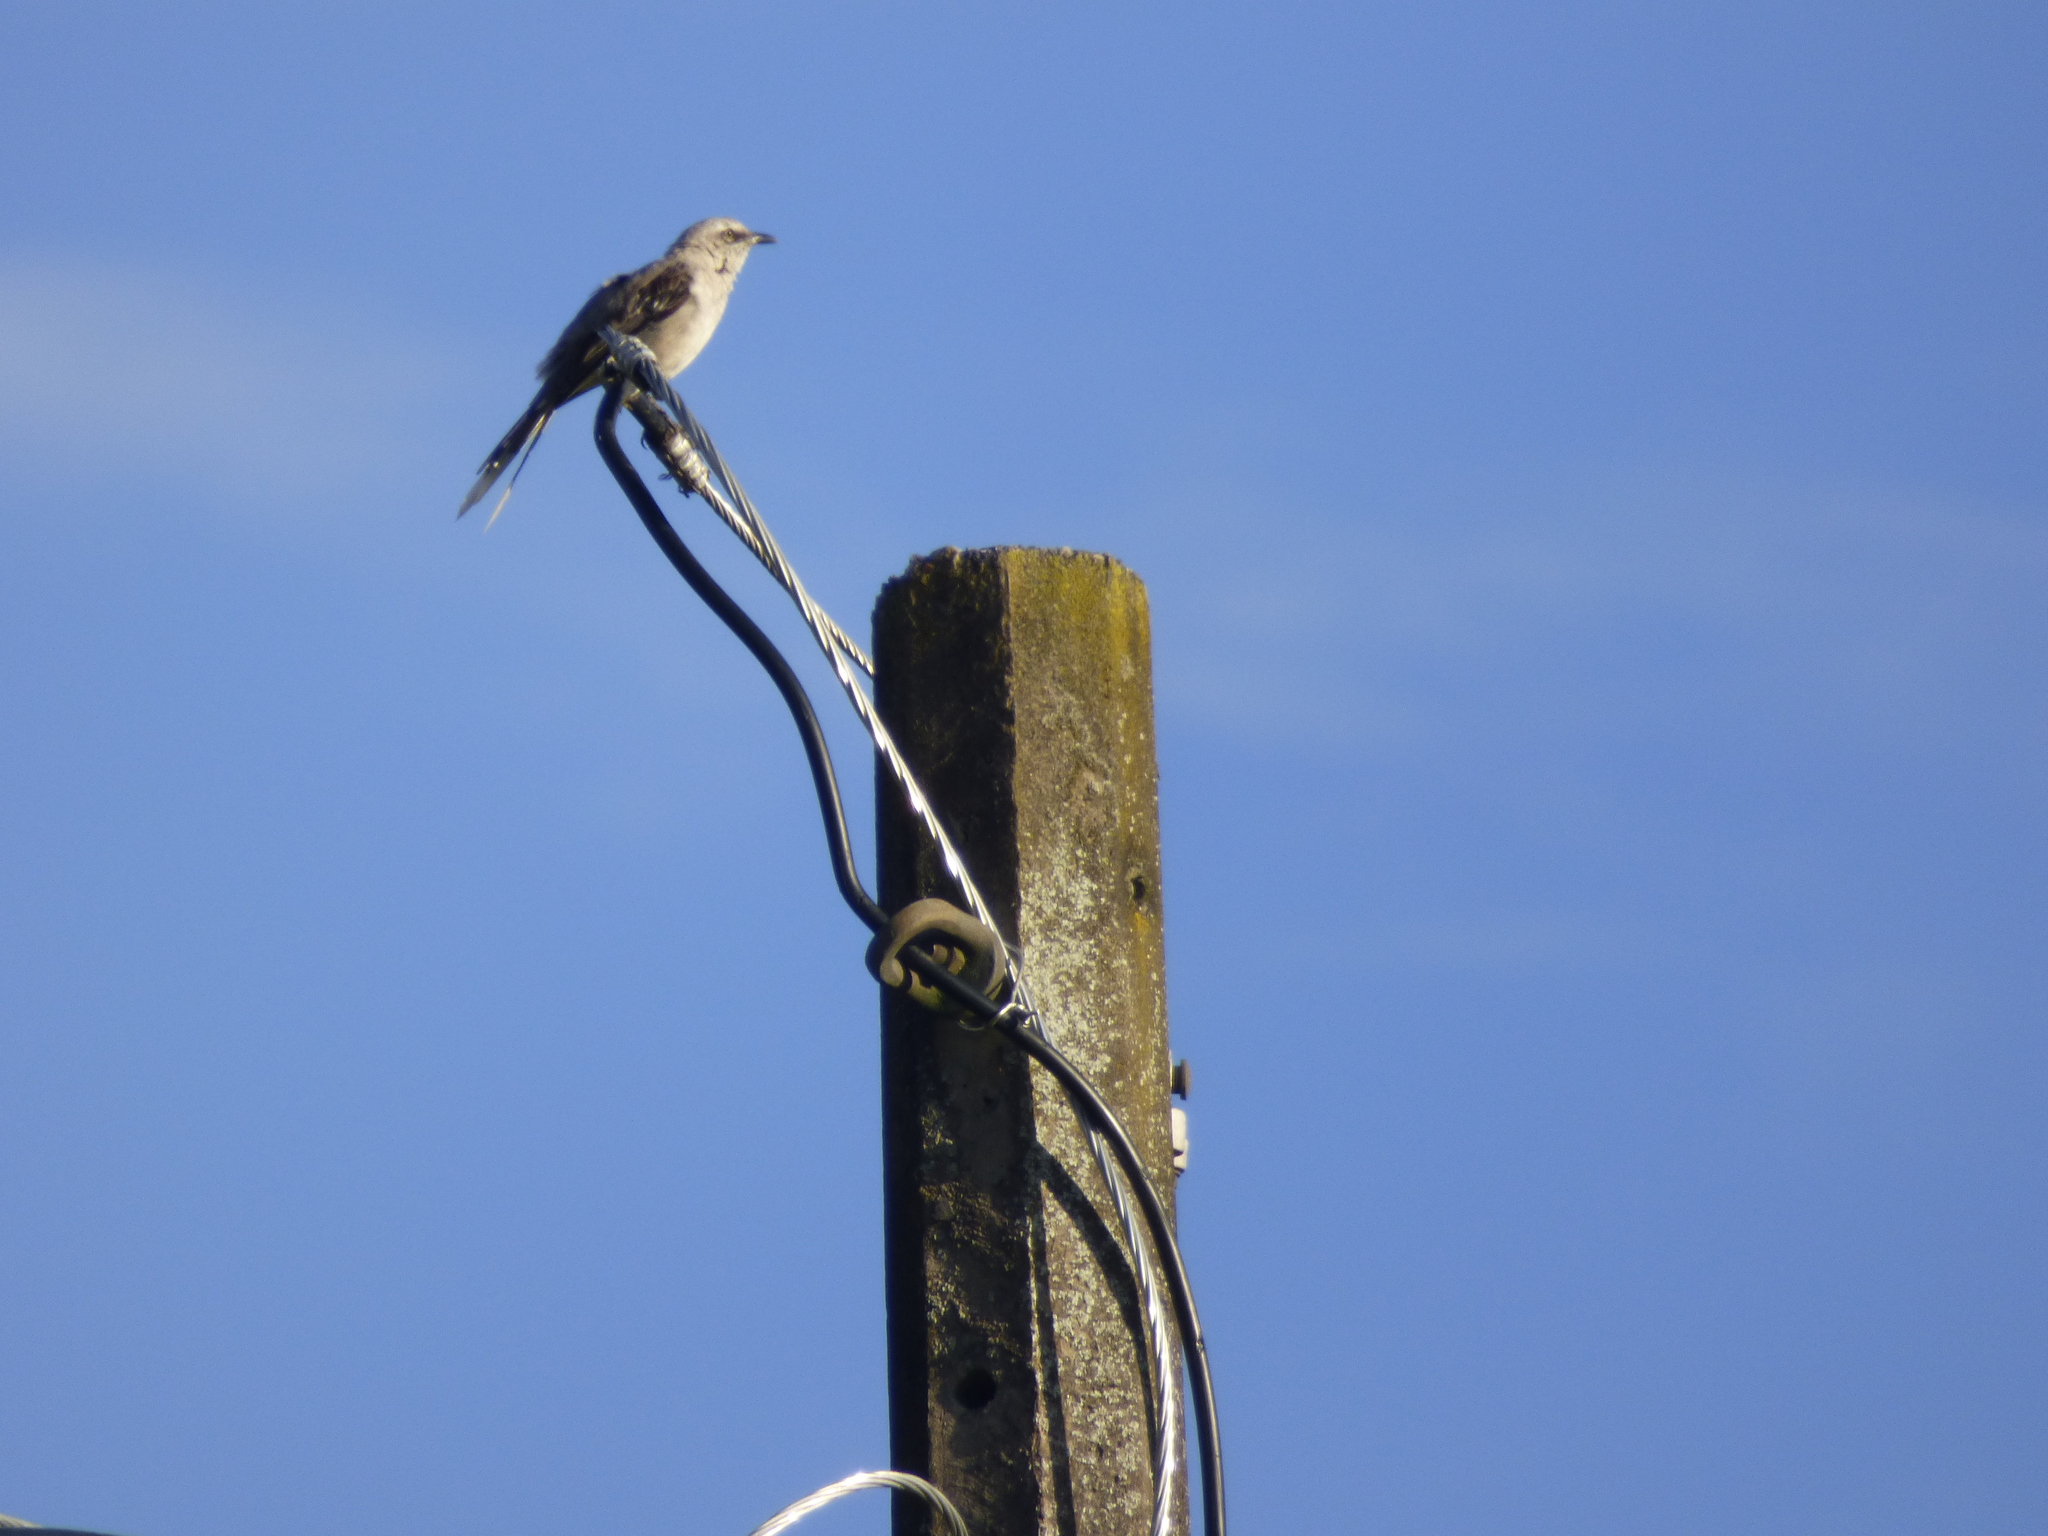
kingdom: Animalia
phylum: Chordata
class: Aves
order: Passeriformes
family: Mimidae
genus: Mimus
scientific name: Mimus gilvus
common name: Tropical mockingbird
